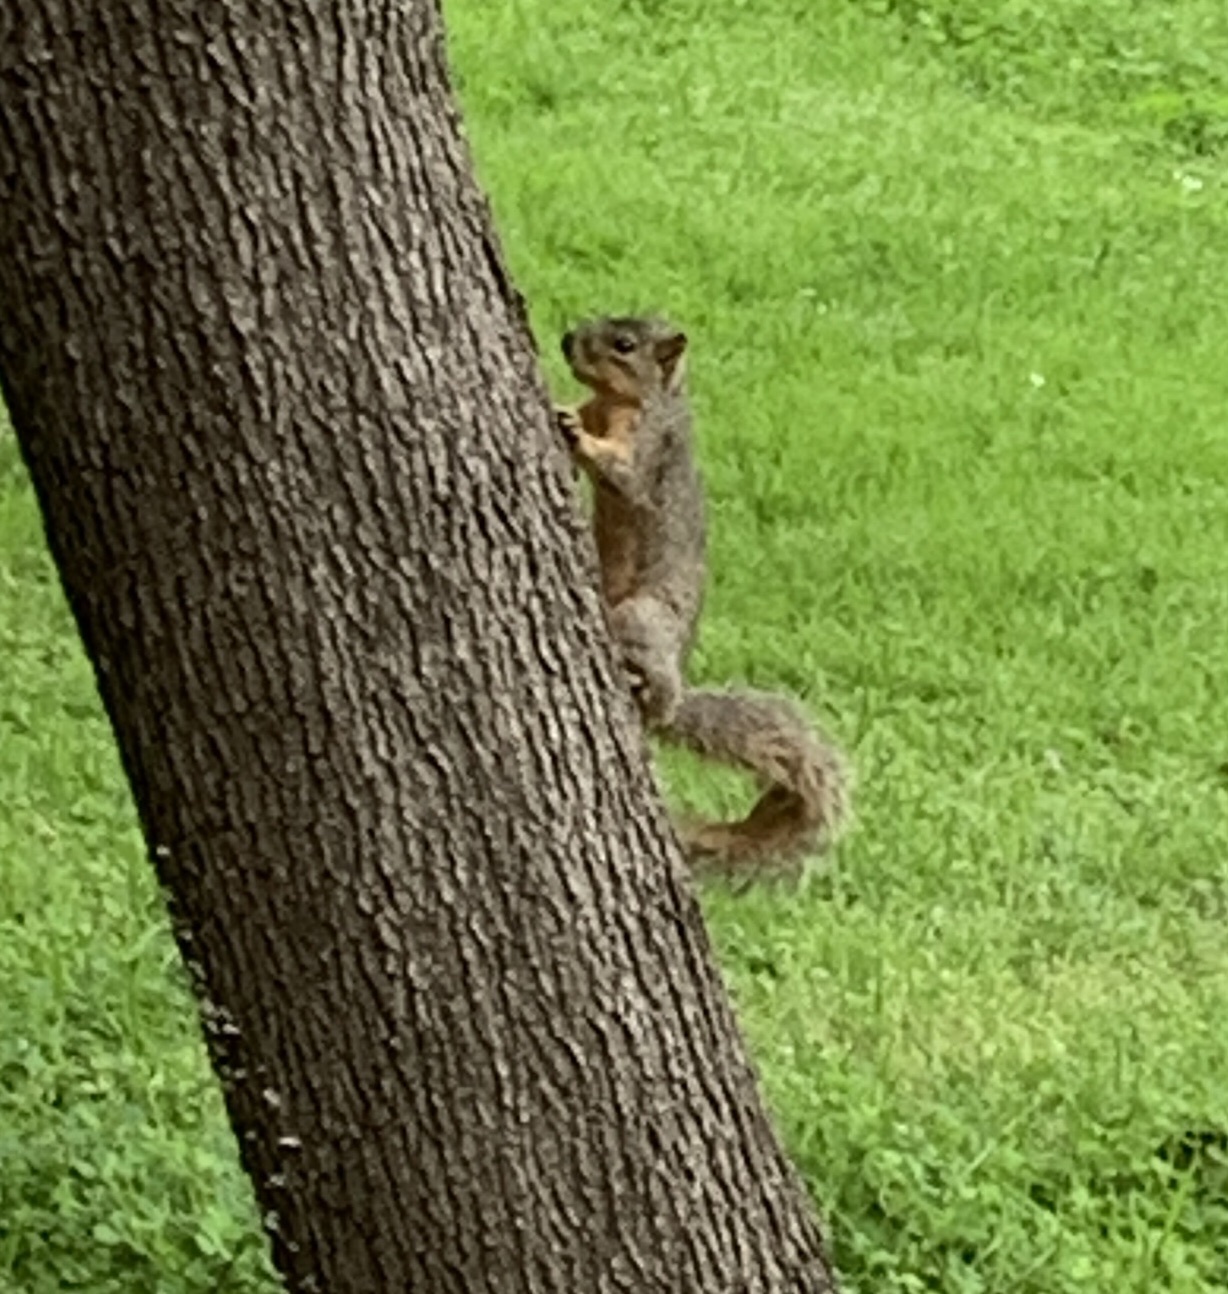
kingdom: Animalia
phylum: Chordata
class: Mammalia
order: Rodentia
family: Sciuridae
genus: Sciurus
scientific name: Sciurus niger
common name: Fox squirrel
